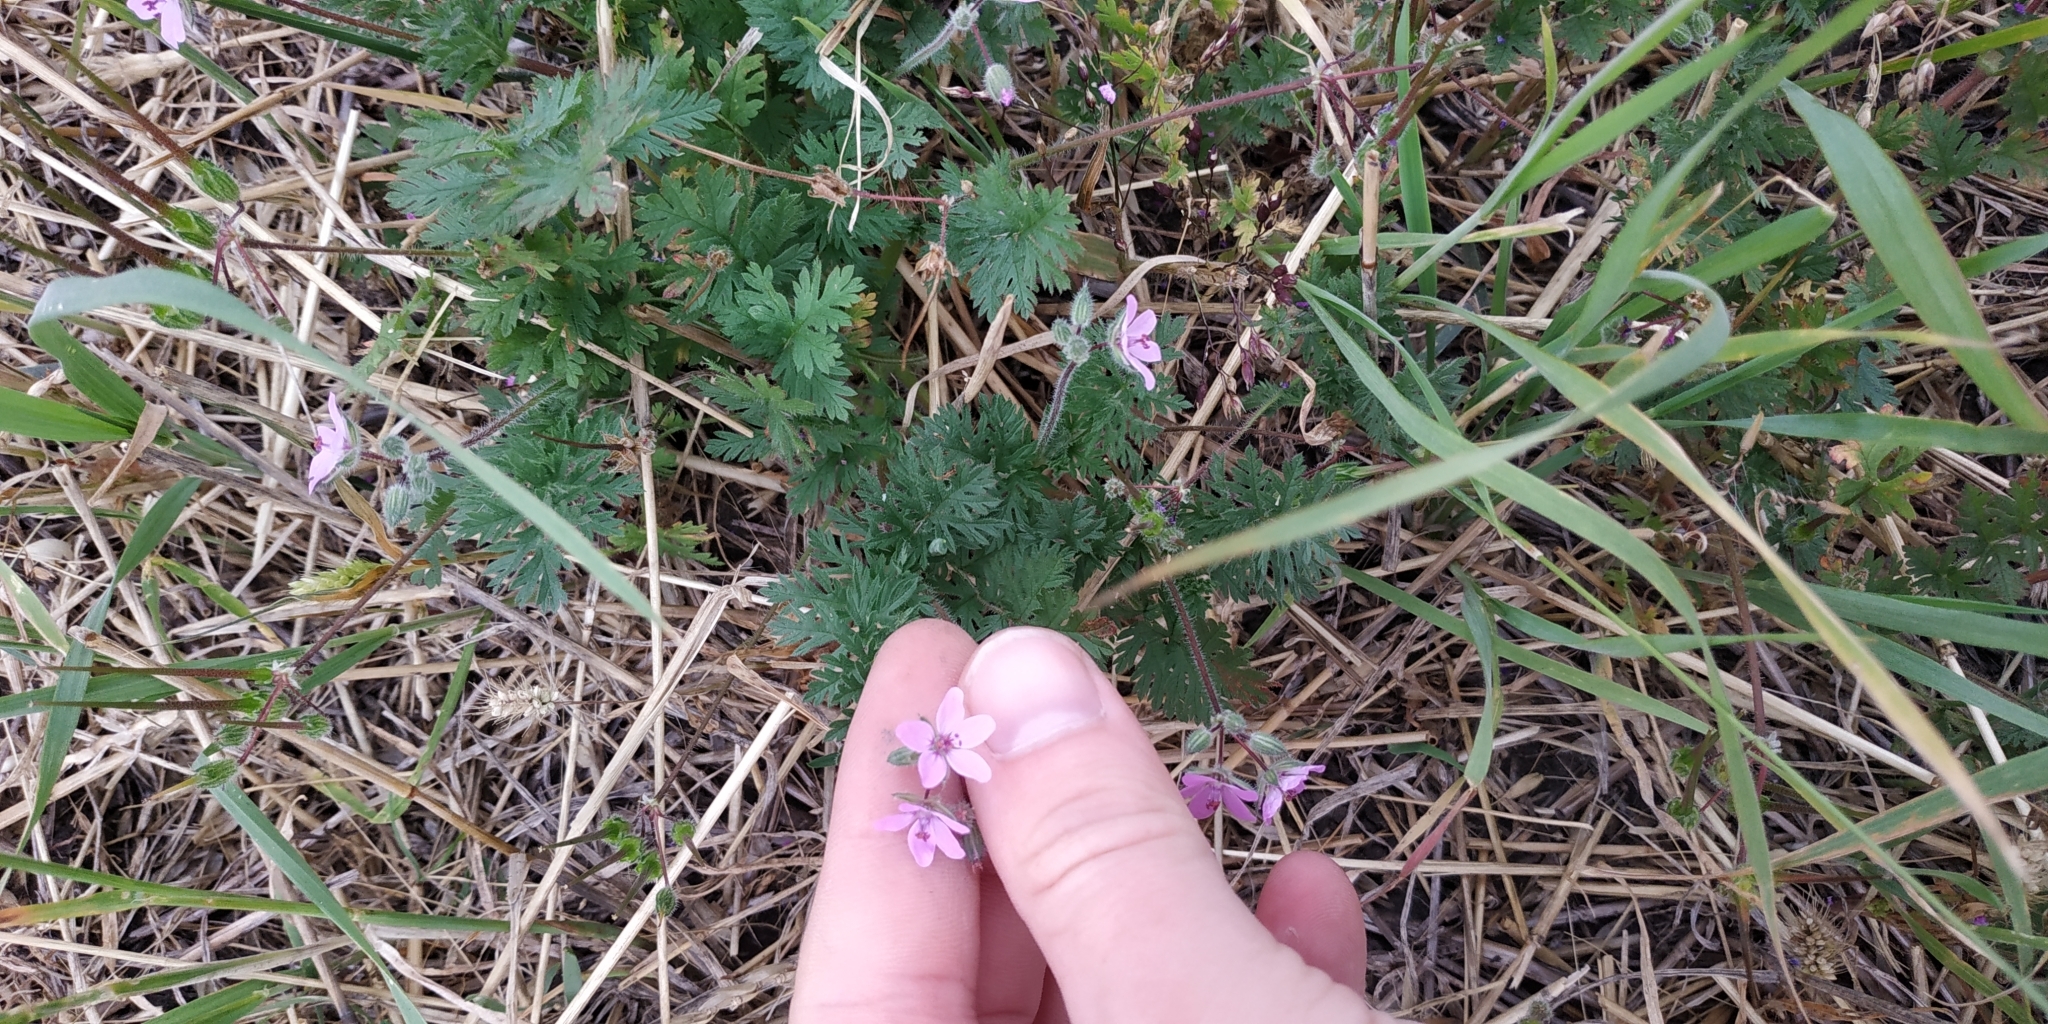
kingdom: Plantae
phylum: Tracheophyta
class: Magnoliopsida
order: Geraniales
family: Geraniaceae
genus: Erodium
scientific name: Erodium cicutarium
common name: Common stork's-bill
